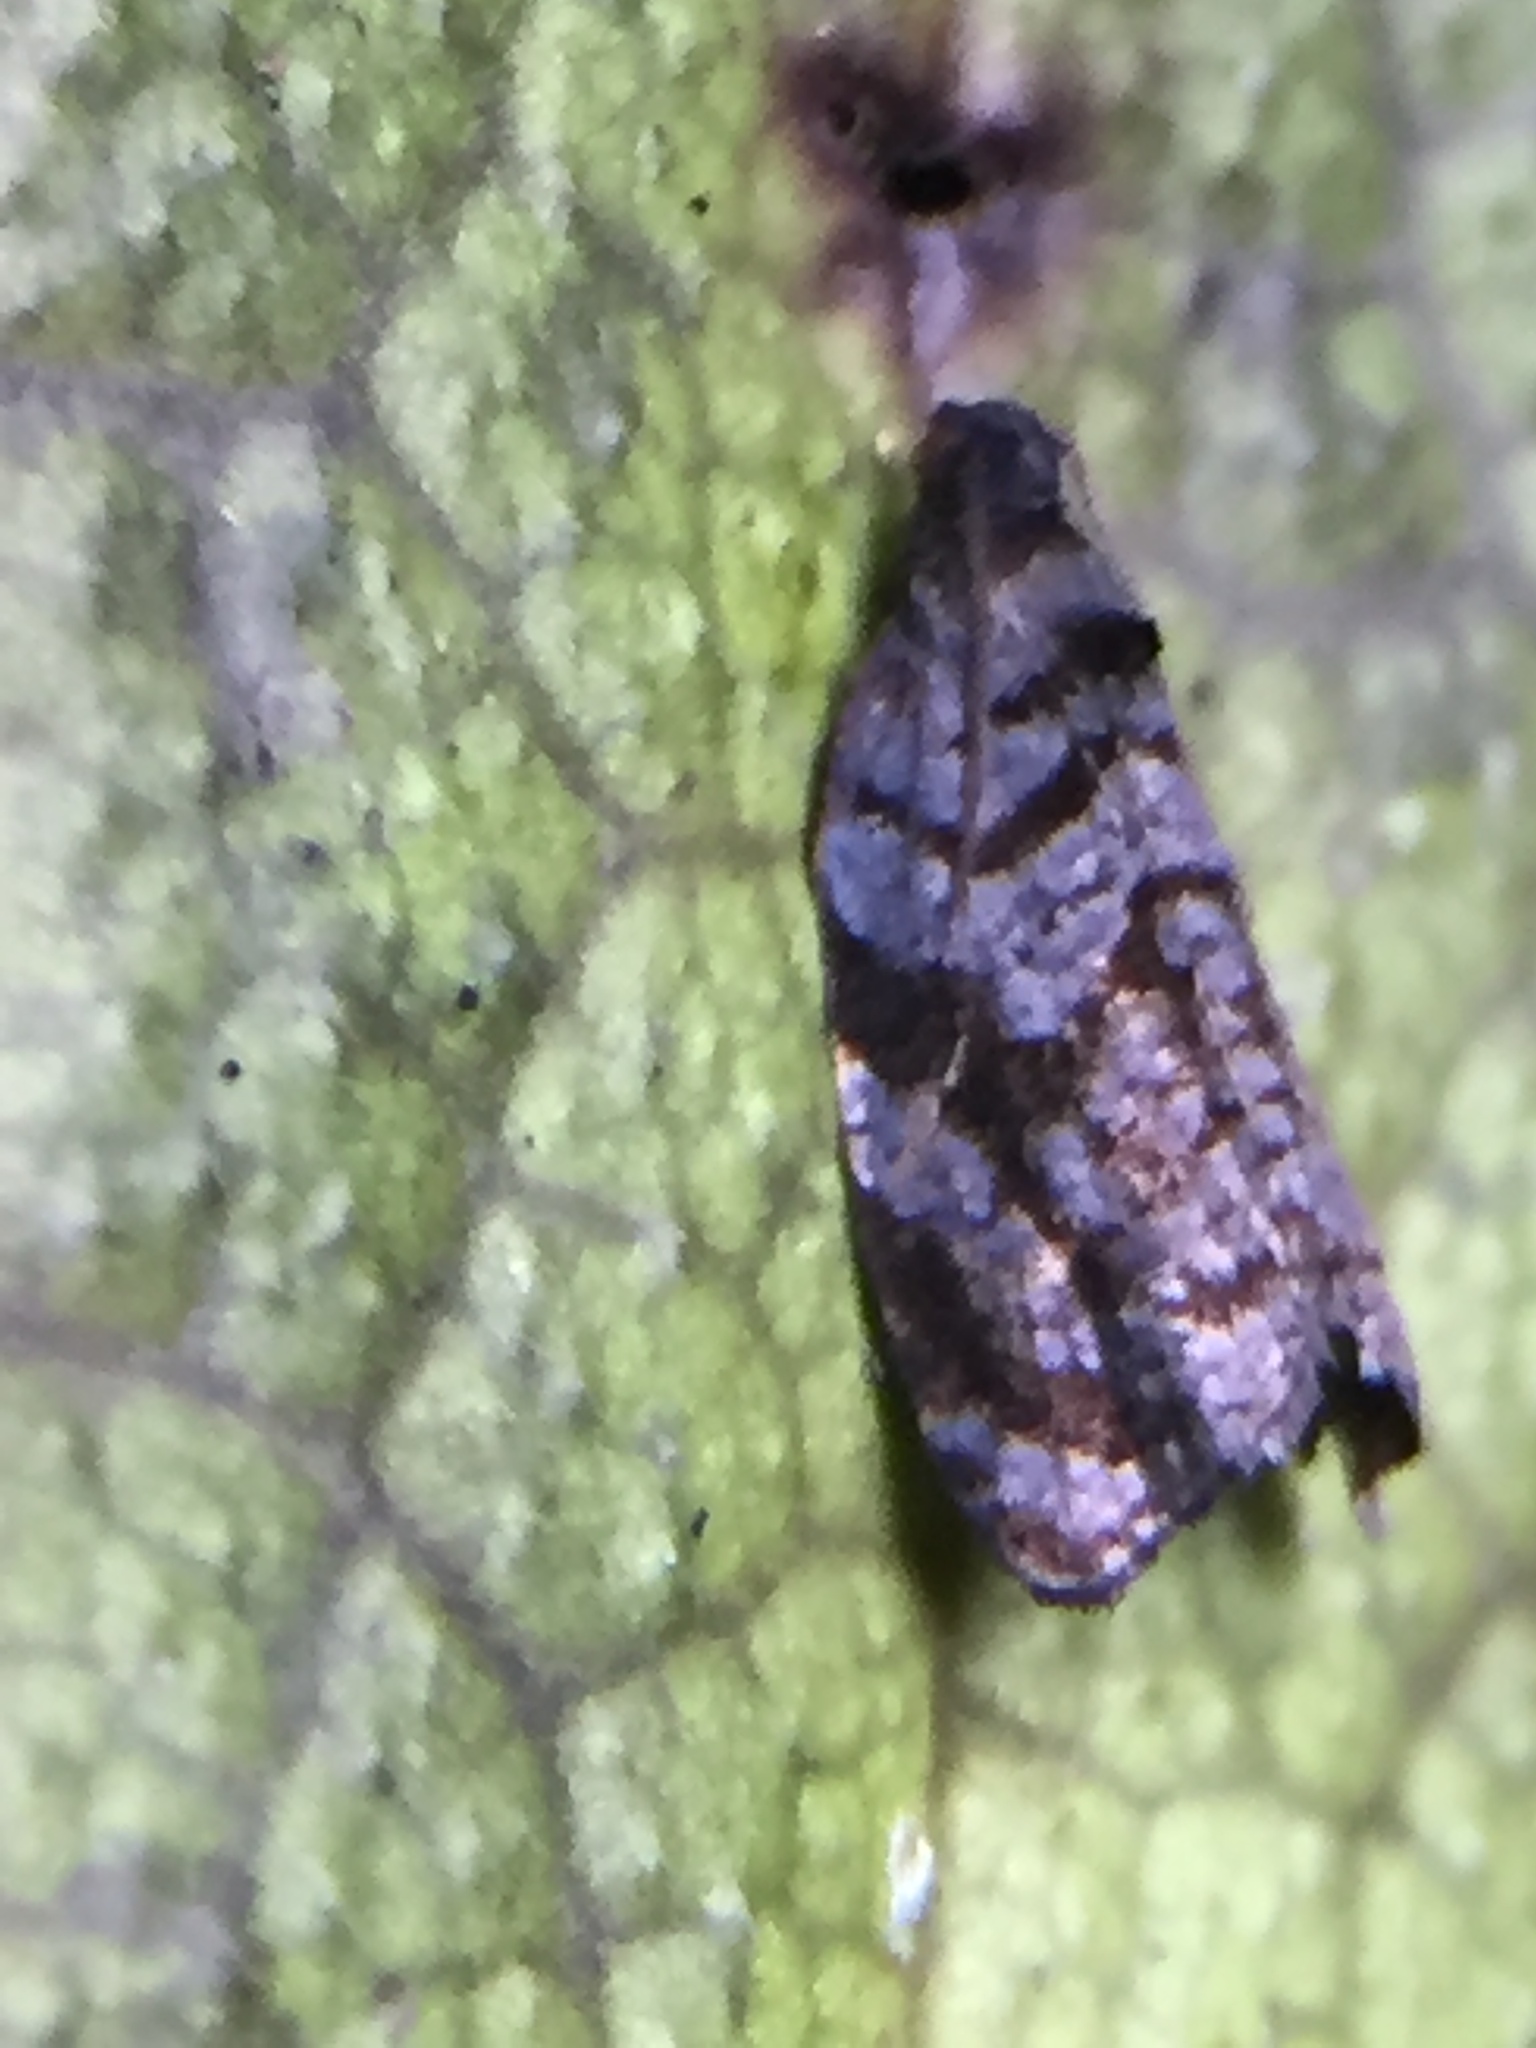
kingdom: Animalia
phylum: Arthropoda
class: Insecta
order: Lepidoptera
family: Tortricidae
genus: Ecclitica
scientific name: Ecclitica hemiclista
